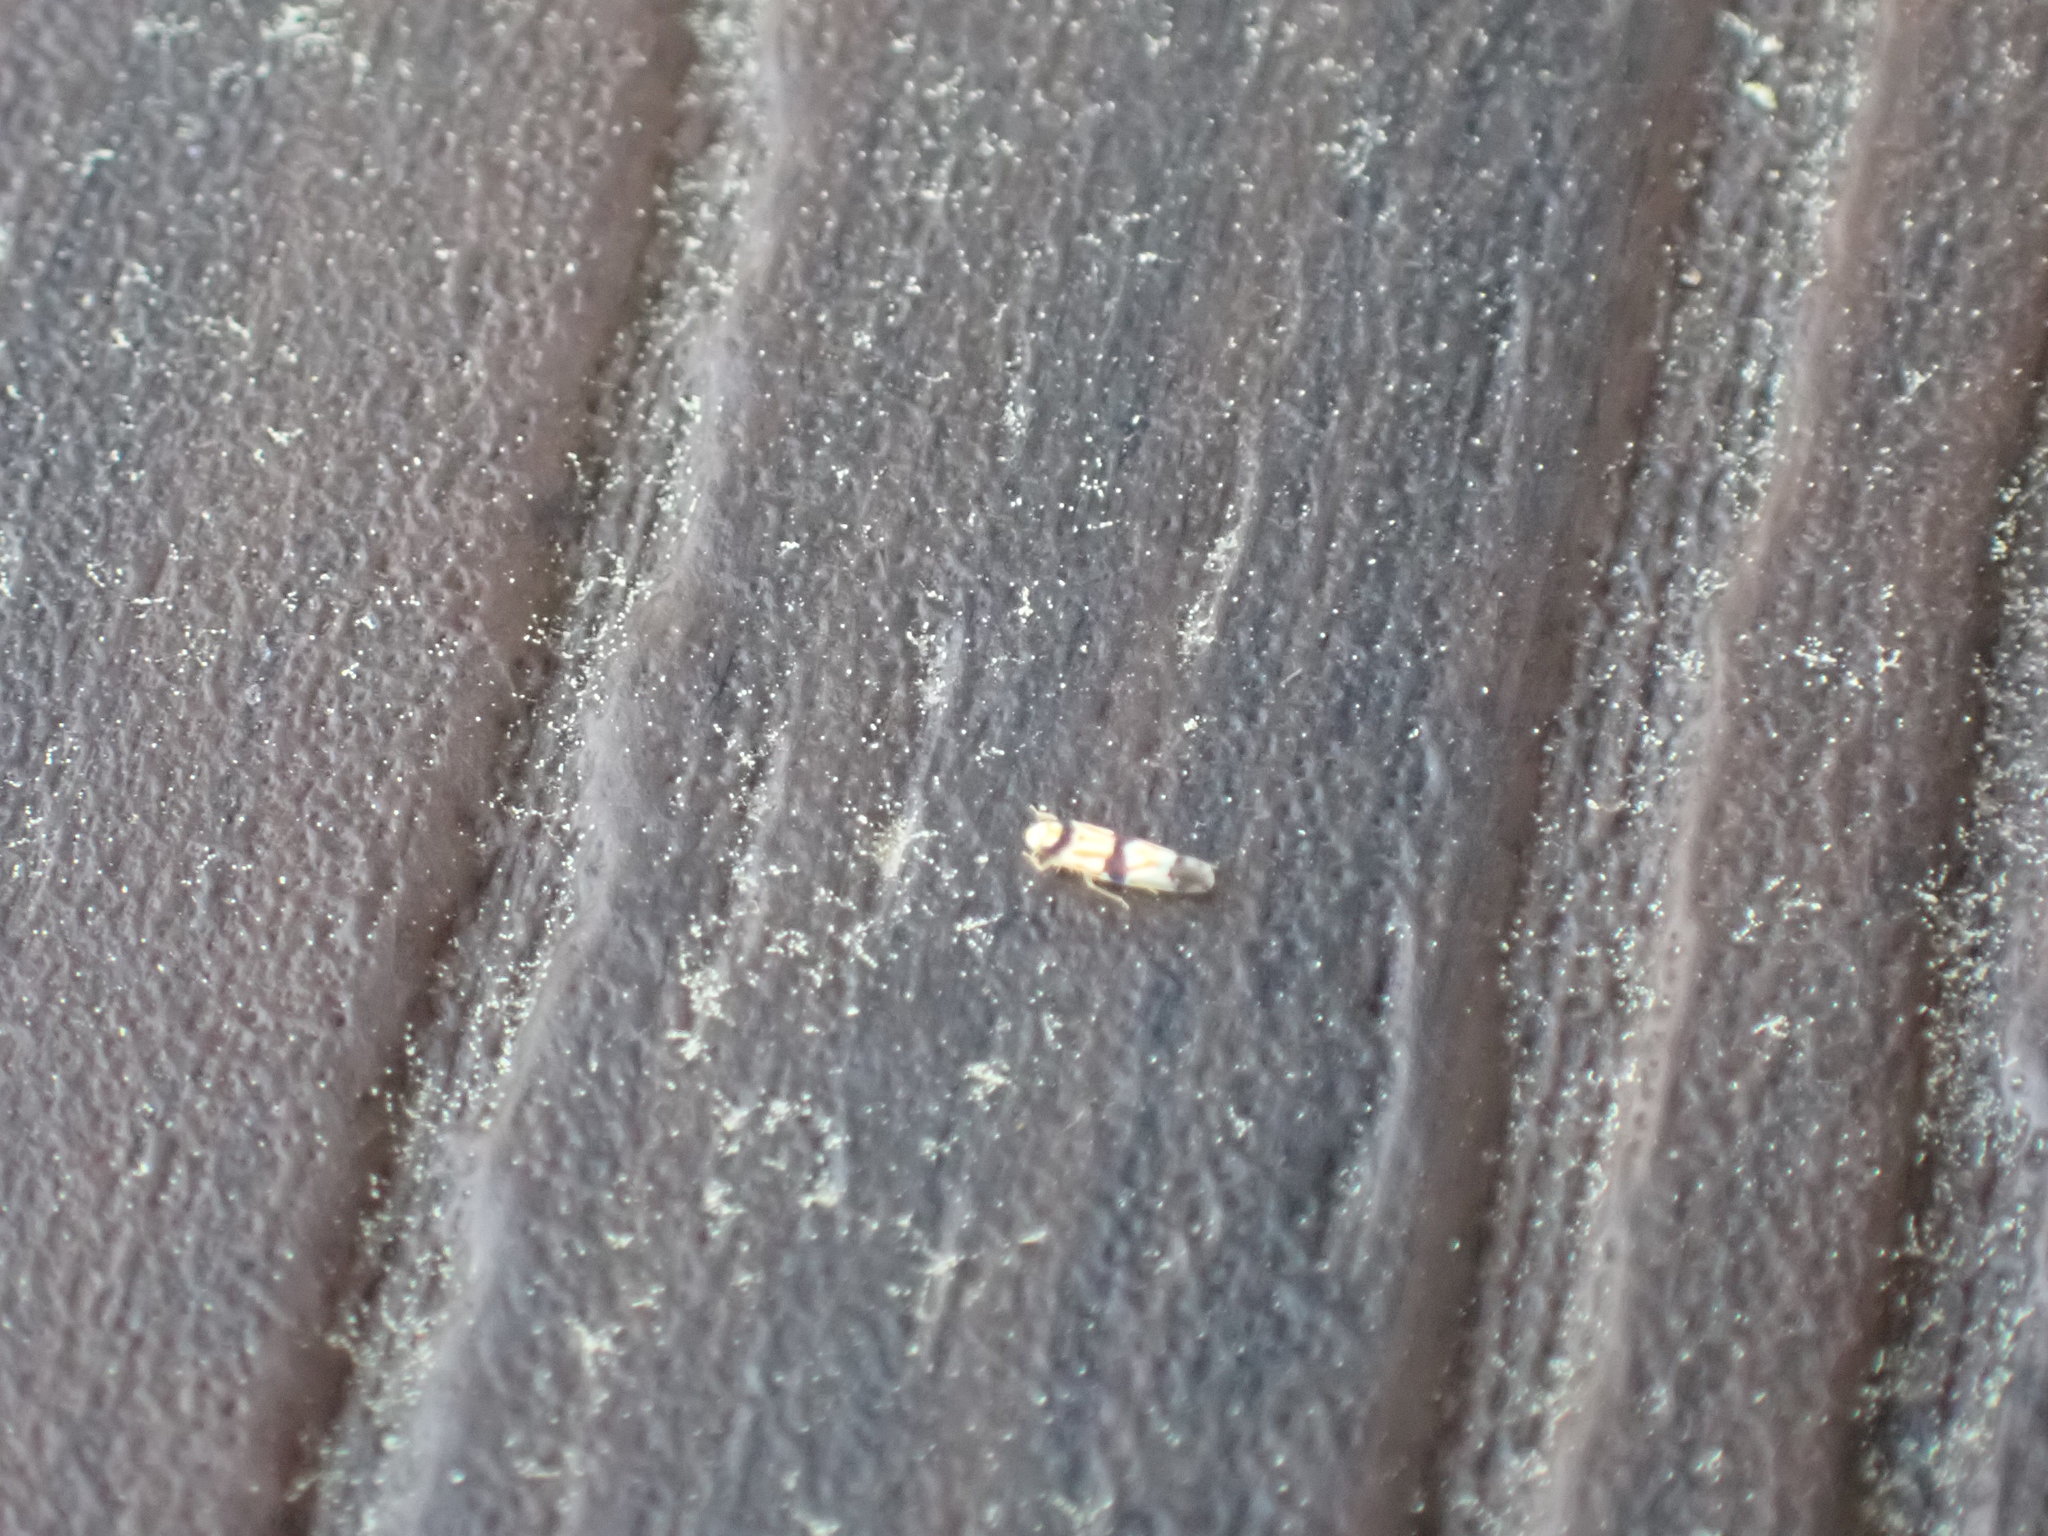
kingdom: Animalia
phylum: Arthropoda
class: Insecta
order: Hemiptera
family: Cicadellidae
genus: Erythroneura
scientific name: Erythroneura calycula
